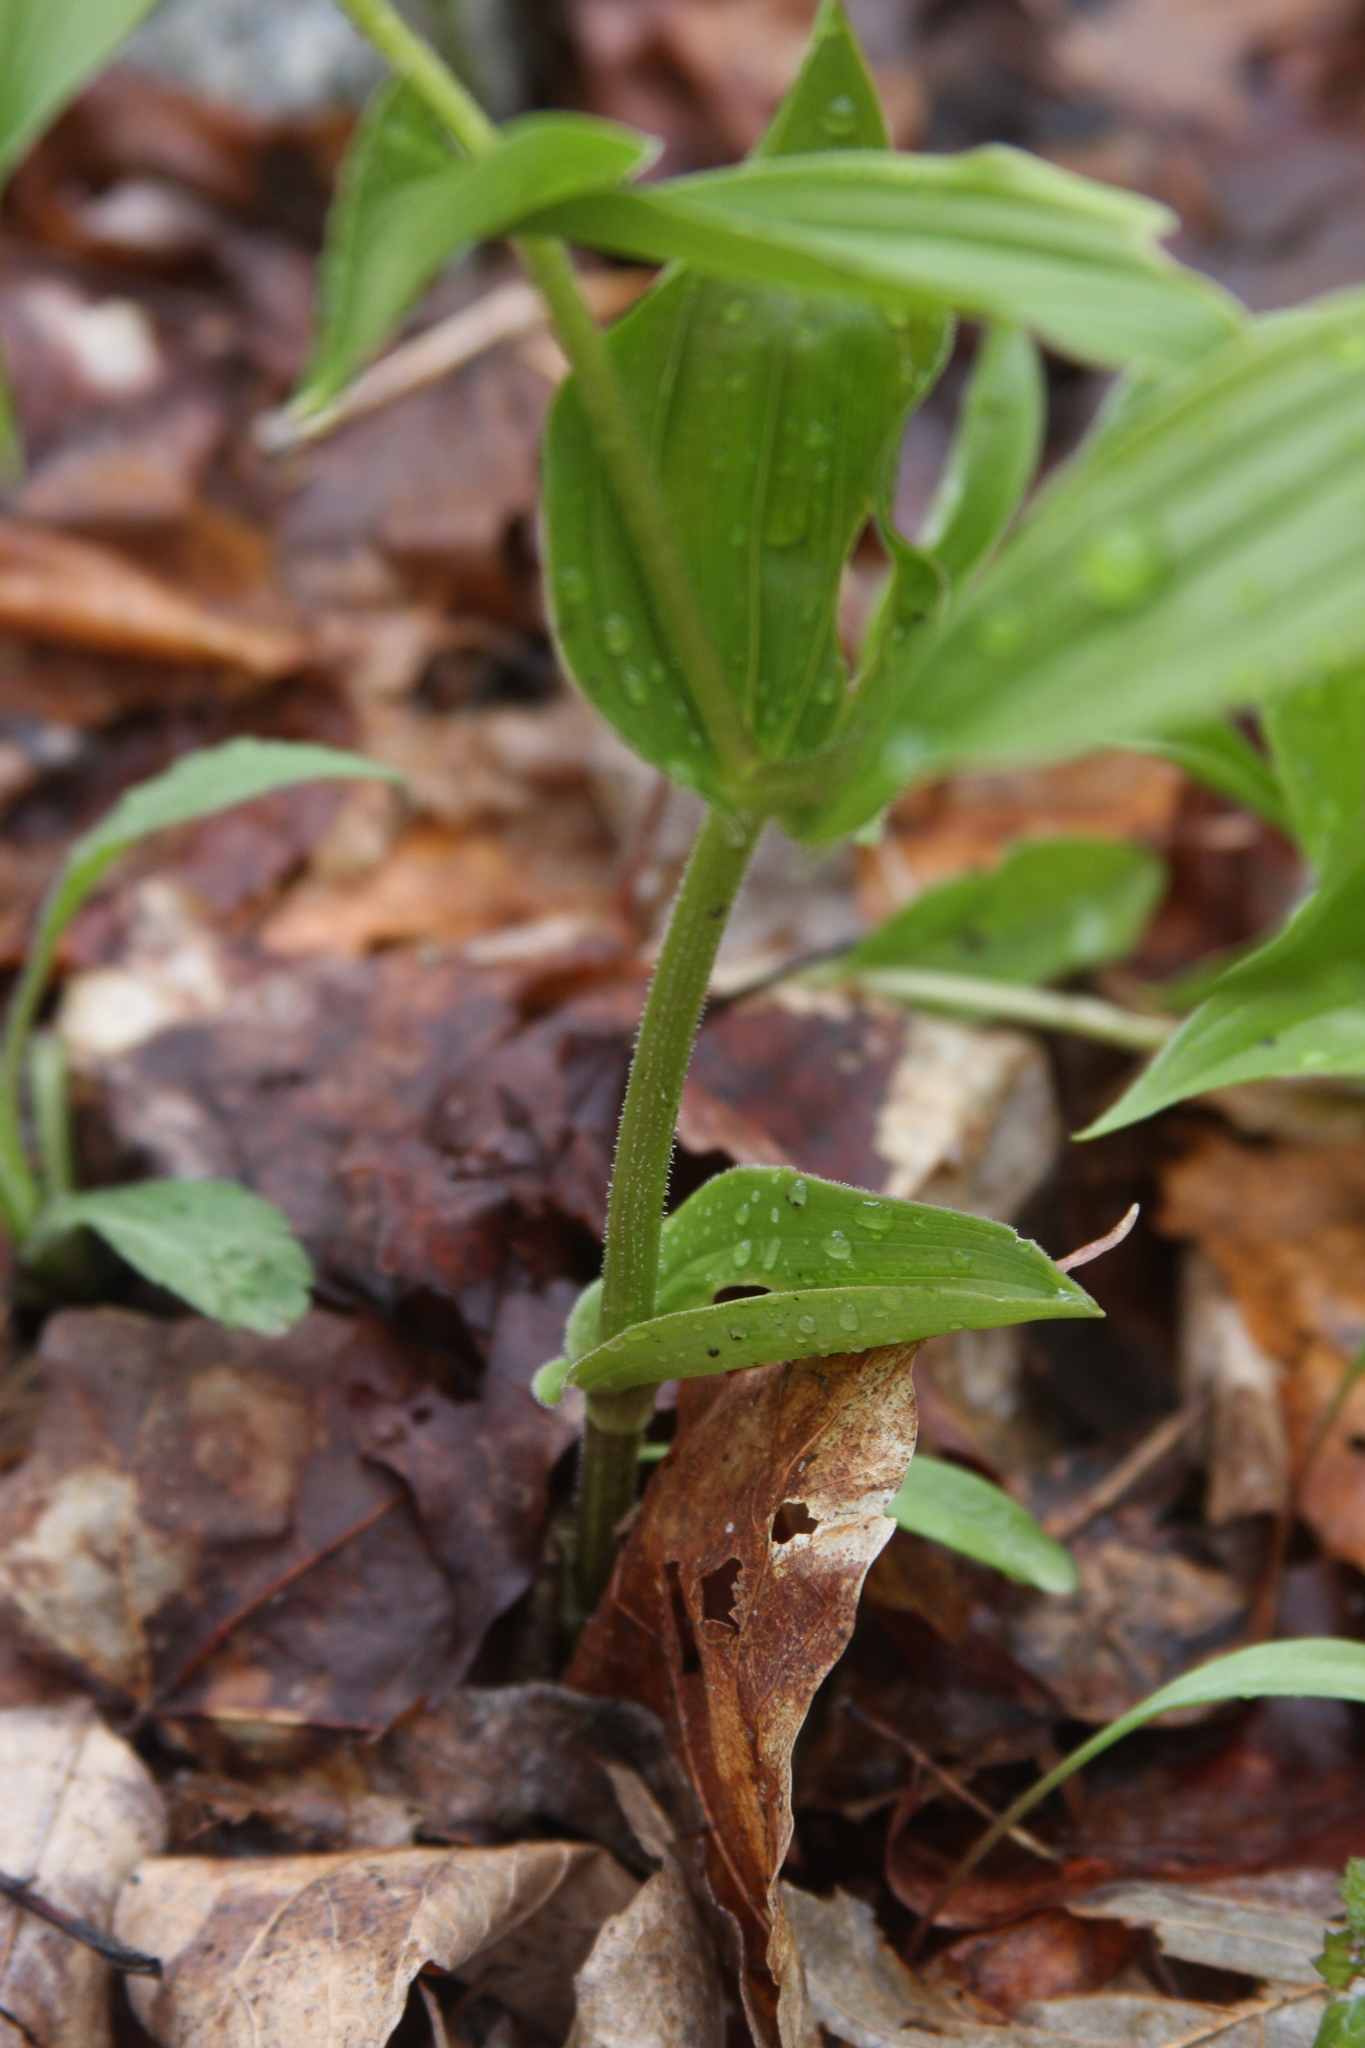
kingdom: Plantae
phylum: Tracheophyta
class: Liliopsida
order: Liliales
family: Liliaceae
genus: Streptopus
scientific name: Streptopus lanceolatus
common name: Rose mandarin
